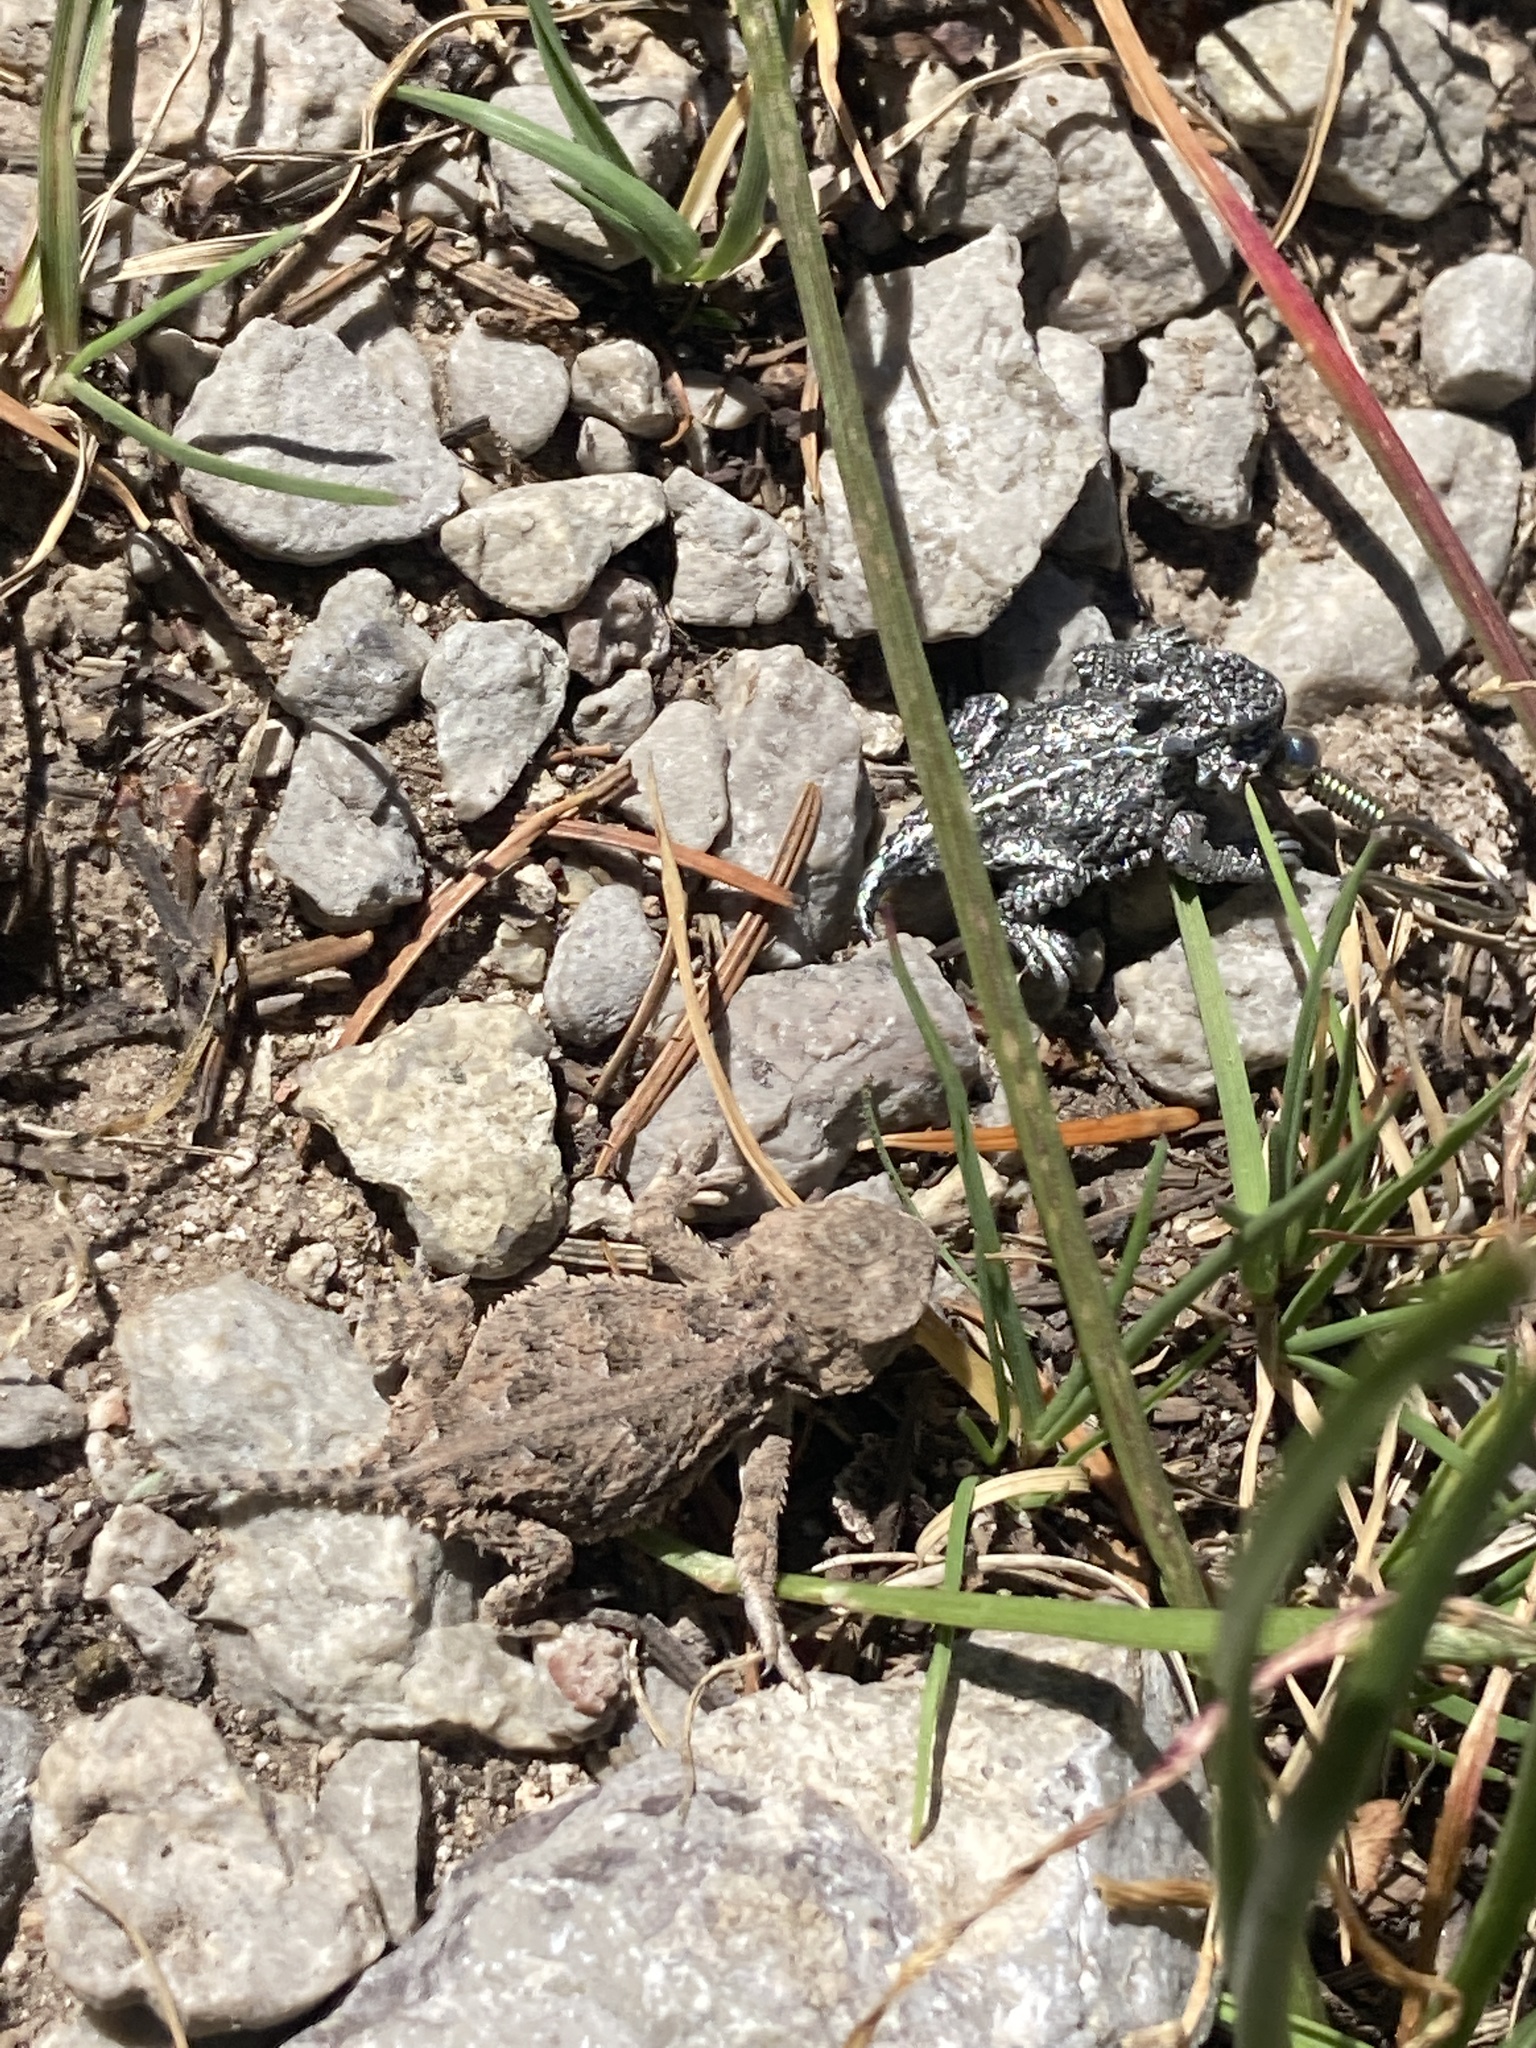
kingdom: Animalia
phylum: Chordata
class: Squamata
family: Phrynosomatidae
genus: Phrynosoma
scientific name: Phrynosoma hernandesi
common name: Greater short-horned lizard
